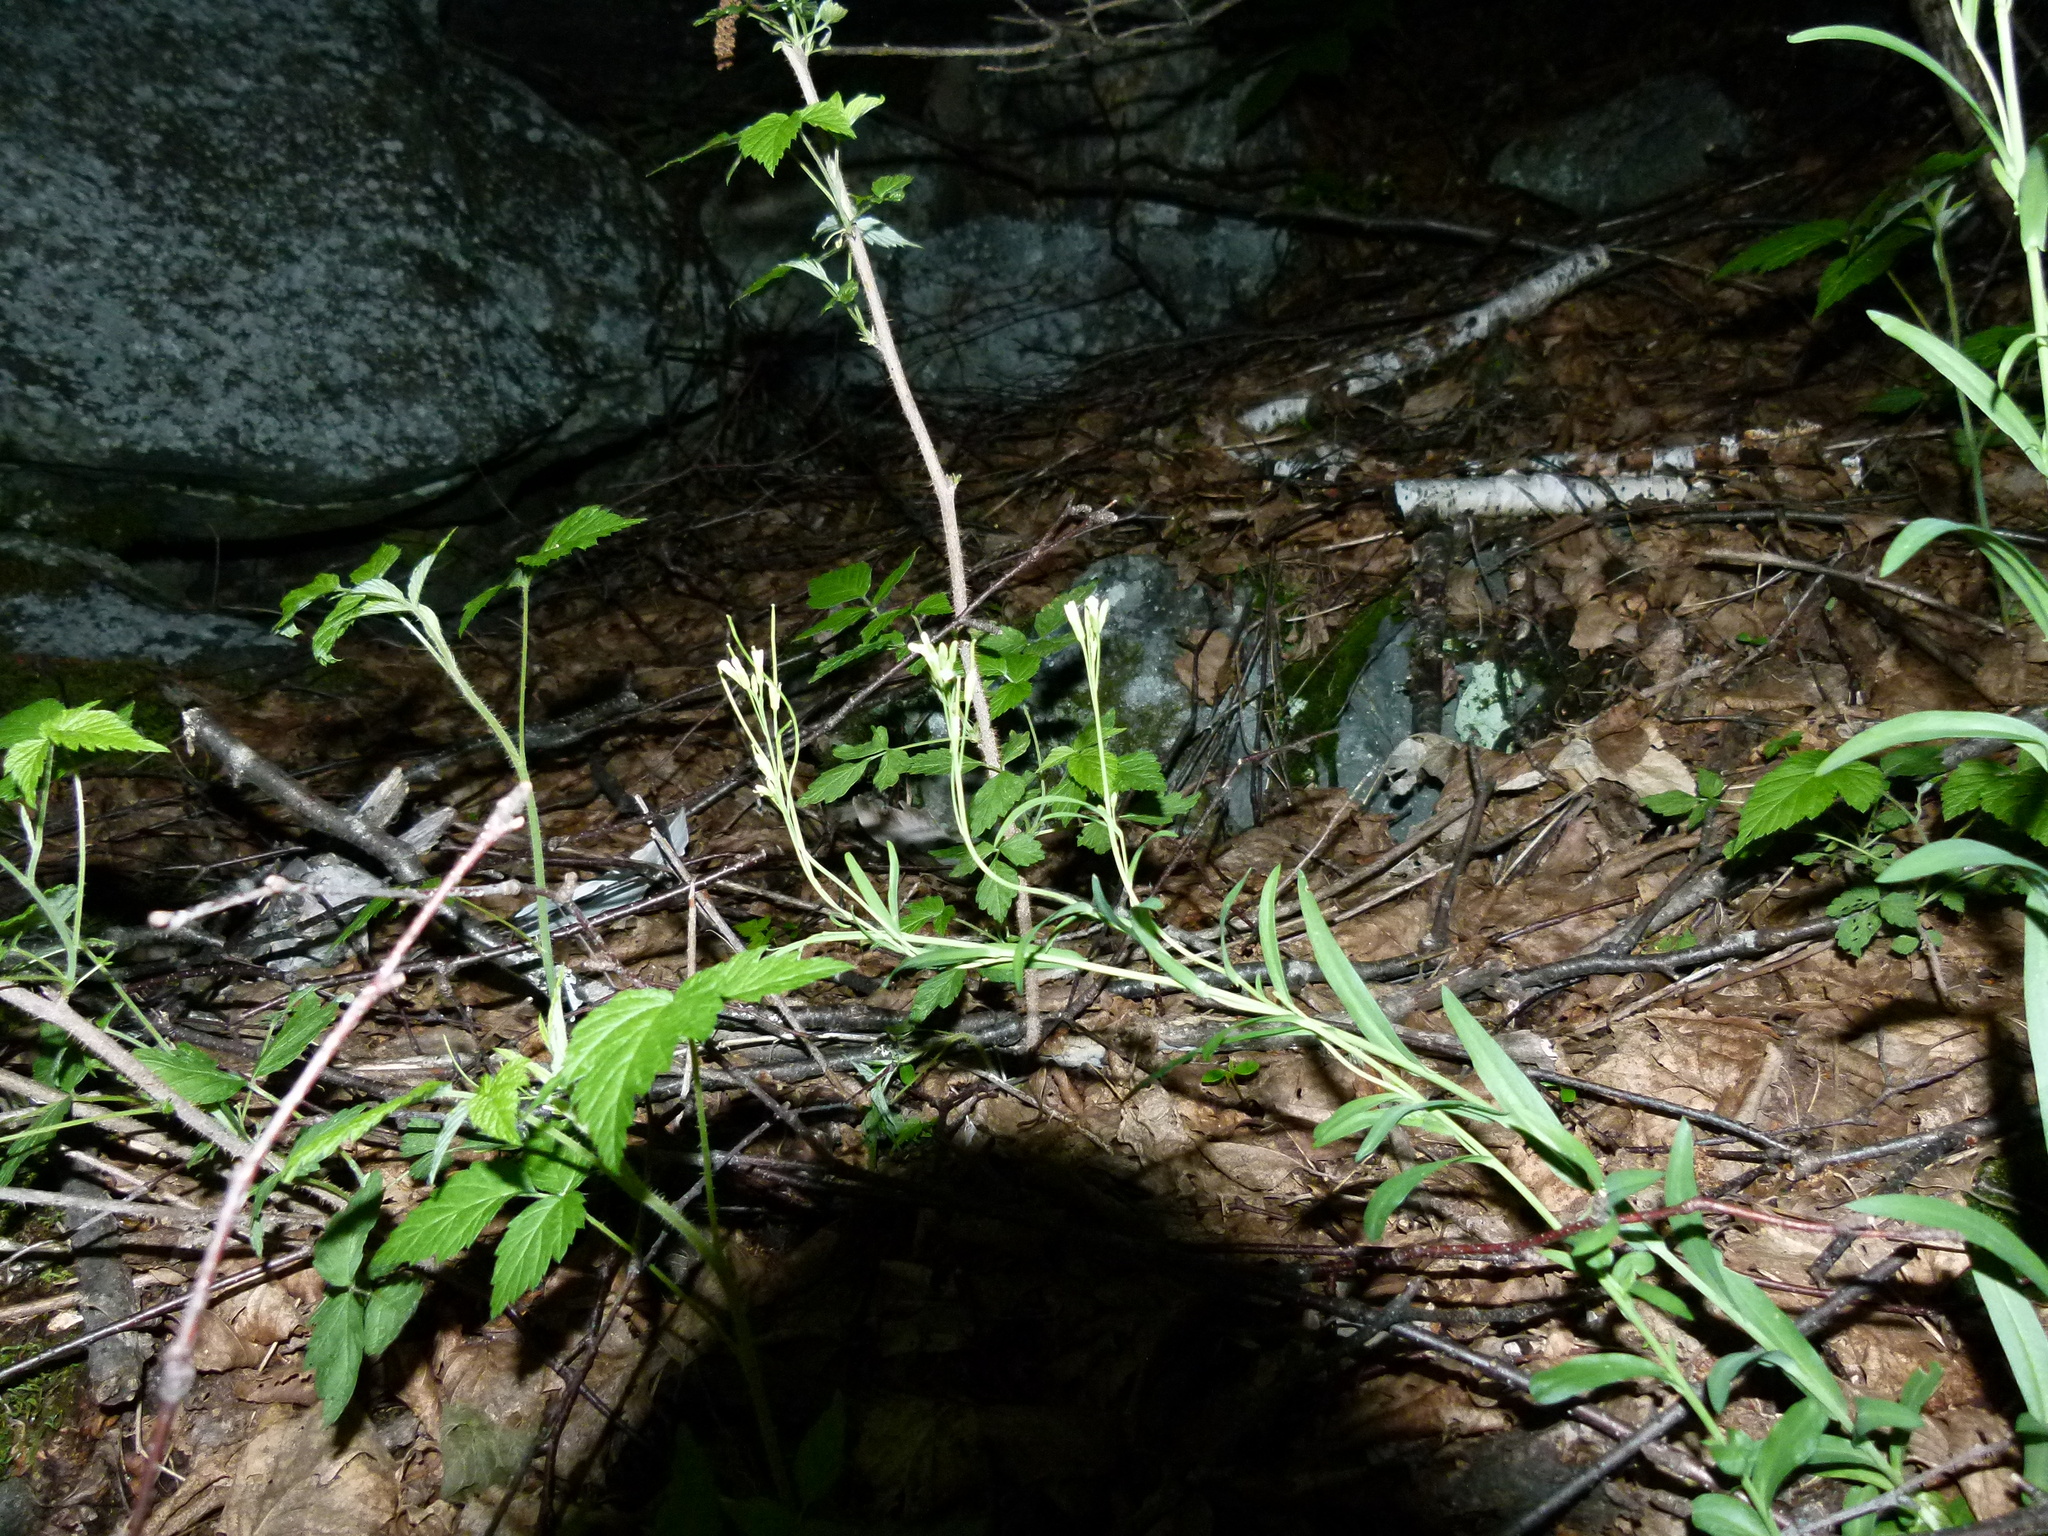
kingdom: Plantae
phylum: Tracheophyta
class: Magnoliopsida
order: Brassicales
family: Brassicaceae
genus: Turritis
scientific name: Turritis glabra
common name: Tower rockcress
